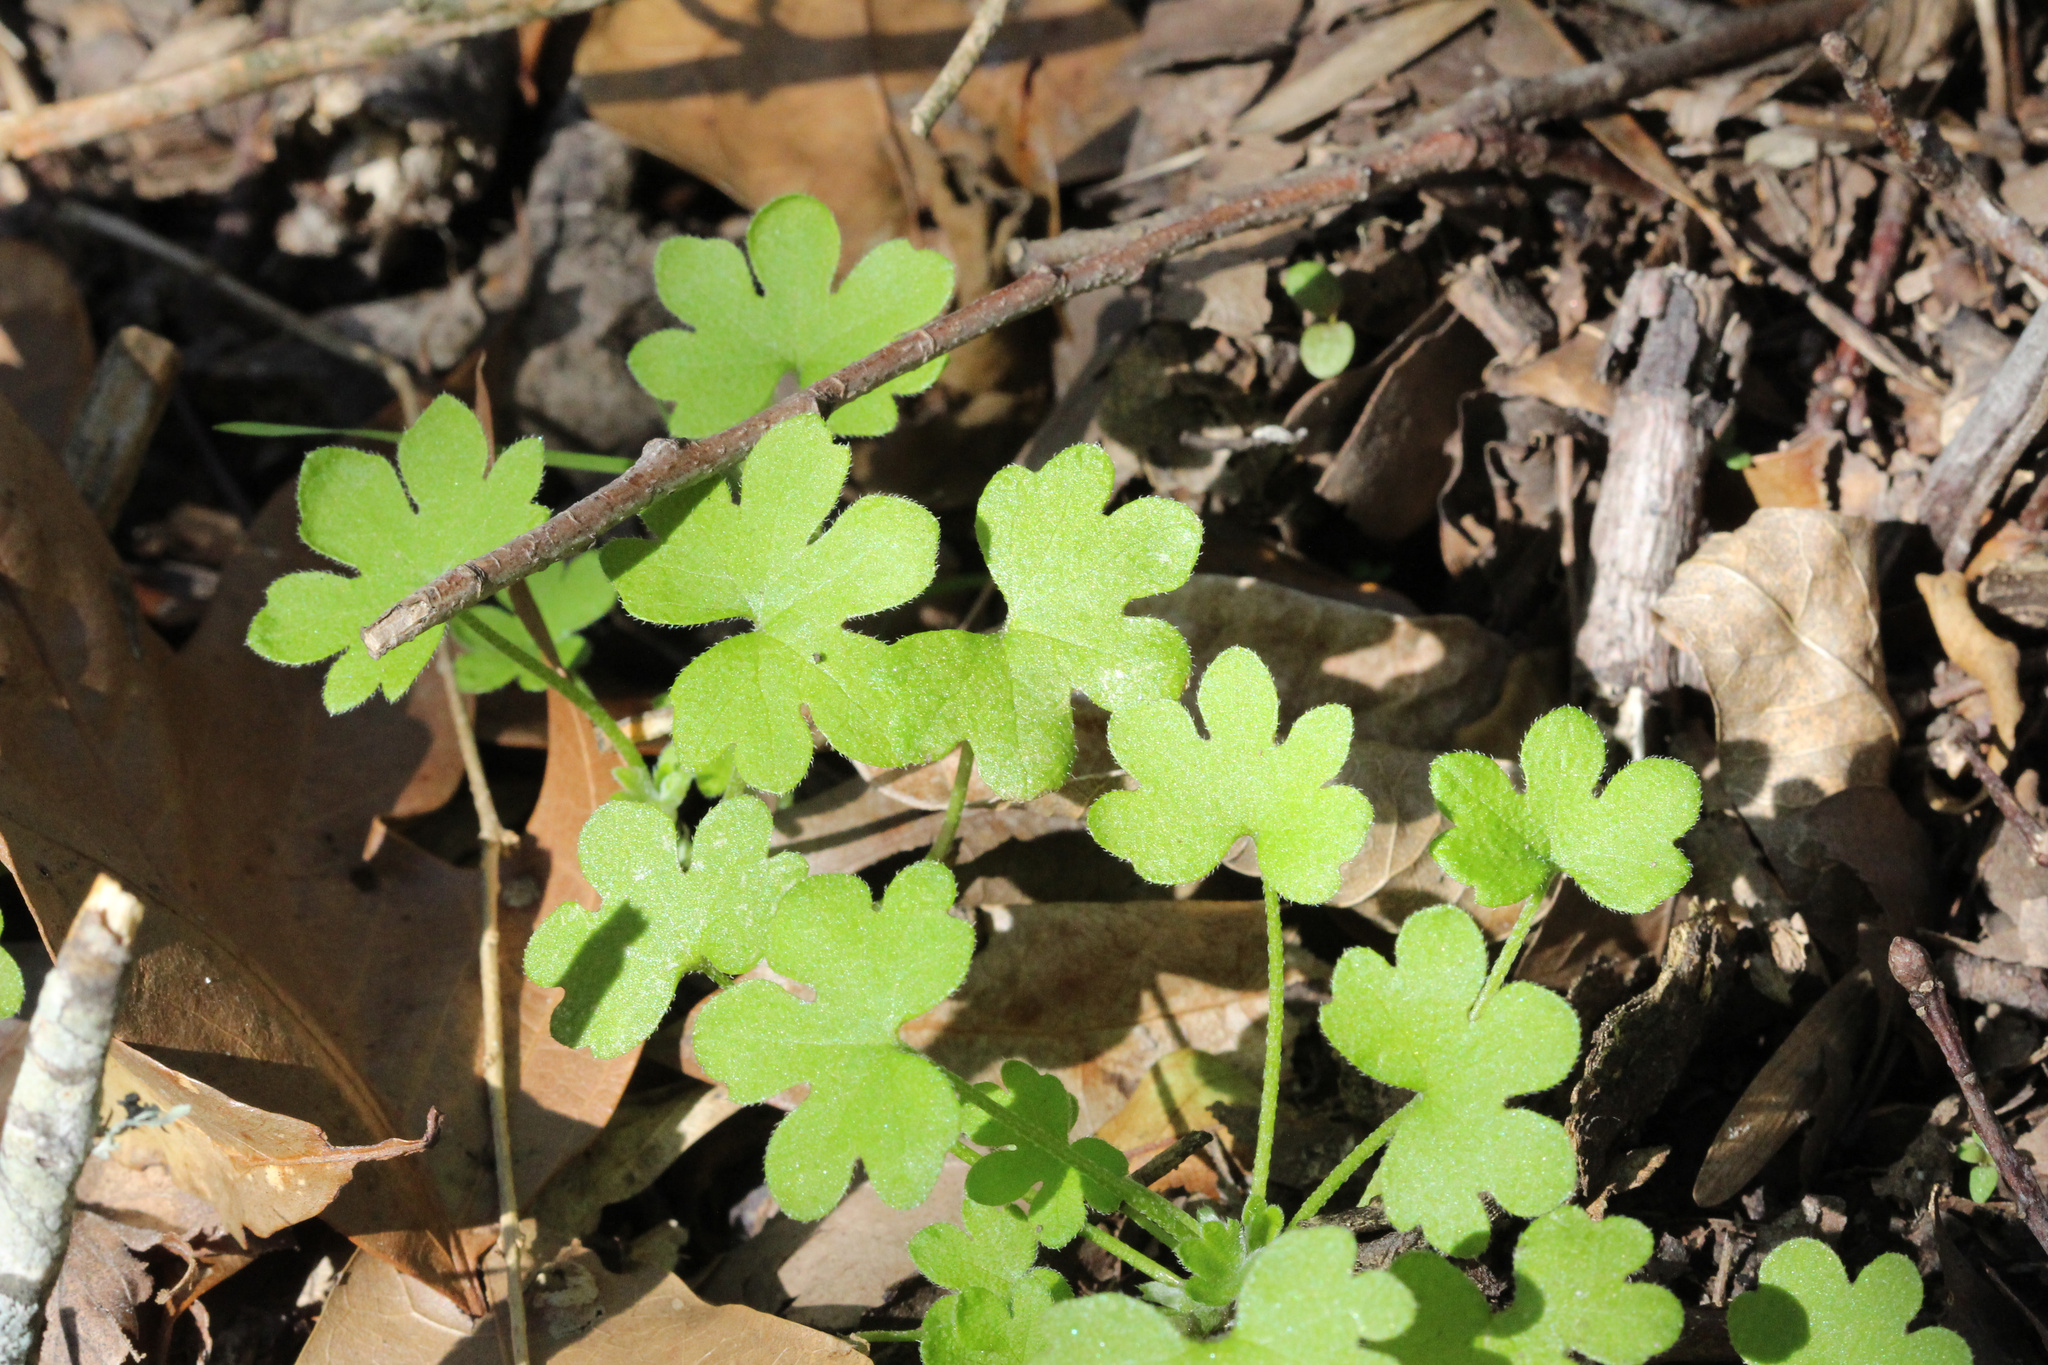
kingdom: Plantae
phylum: Tracheophyta
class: Magnoliopsida
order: Apiales
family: Apiaceae
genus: Bowlesia
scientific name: Bowlesia incana
